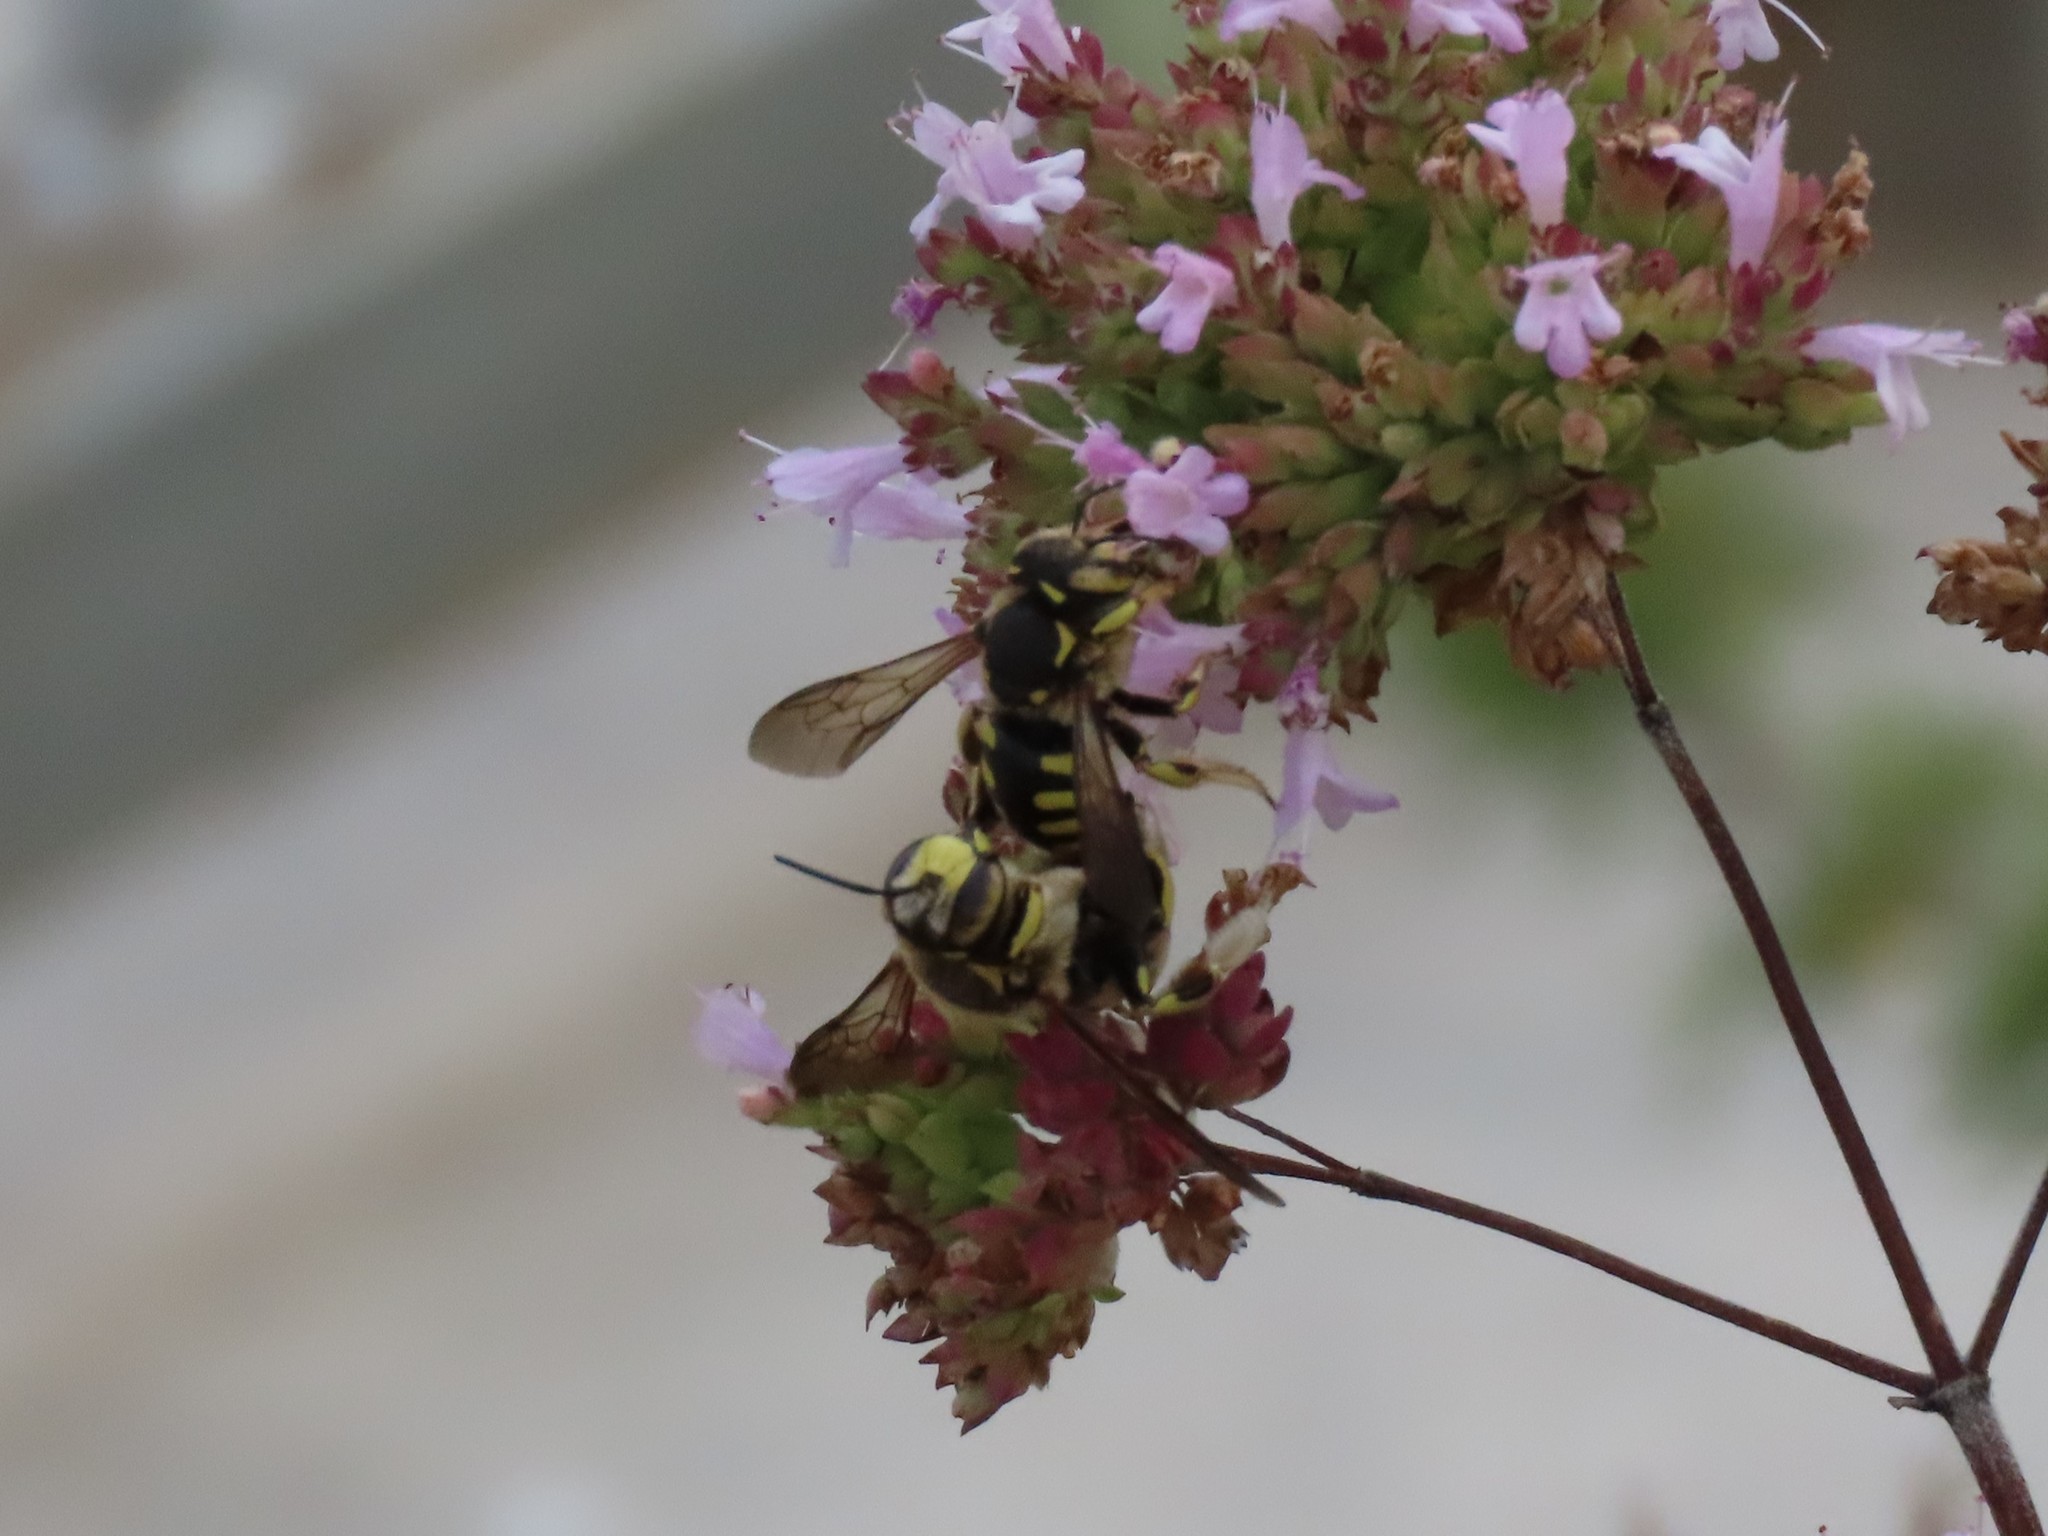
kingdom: Animalia
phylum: Arthropoda
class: Insecta
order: Hymenoptera
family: Megachilidae
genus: Anthidium
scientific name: Anthidium florentinum
